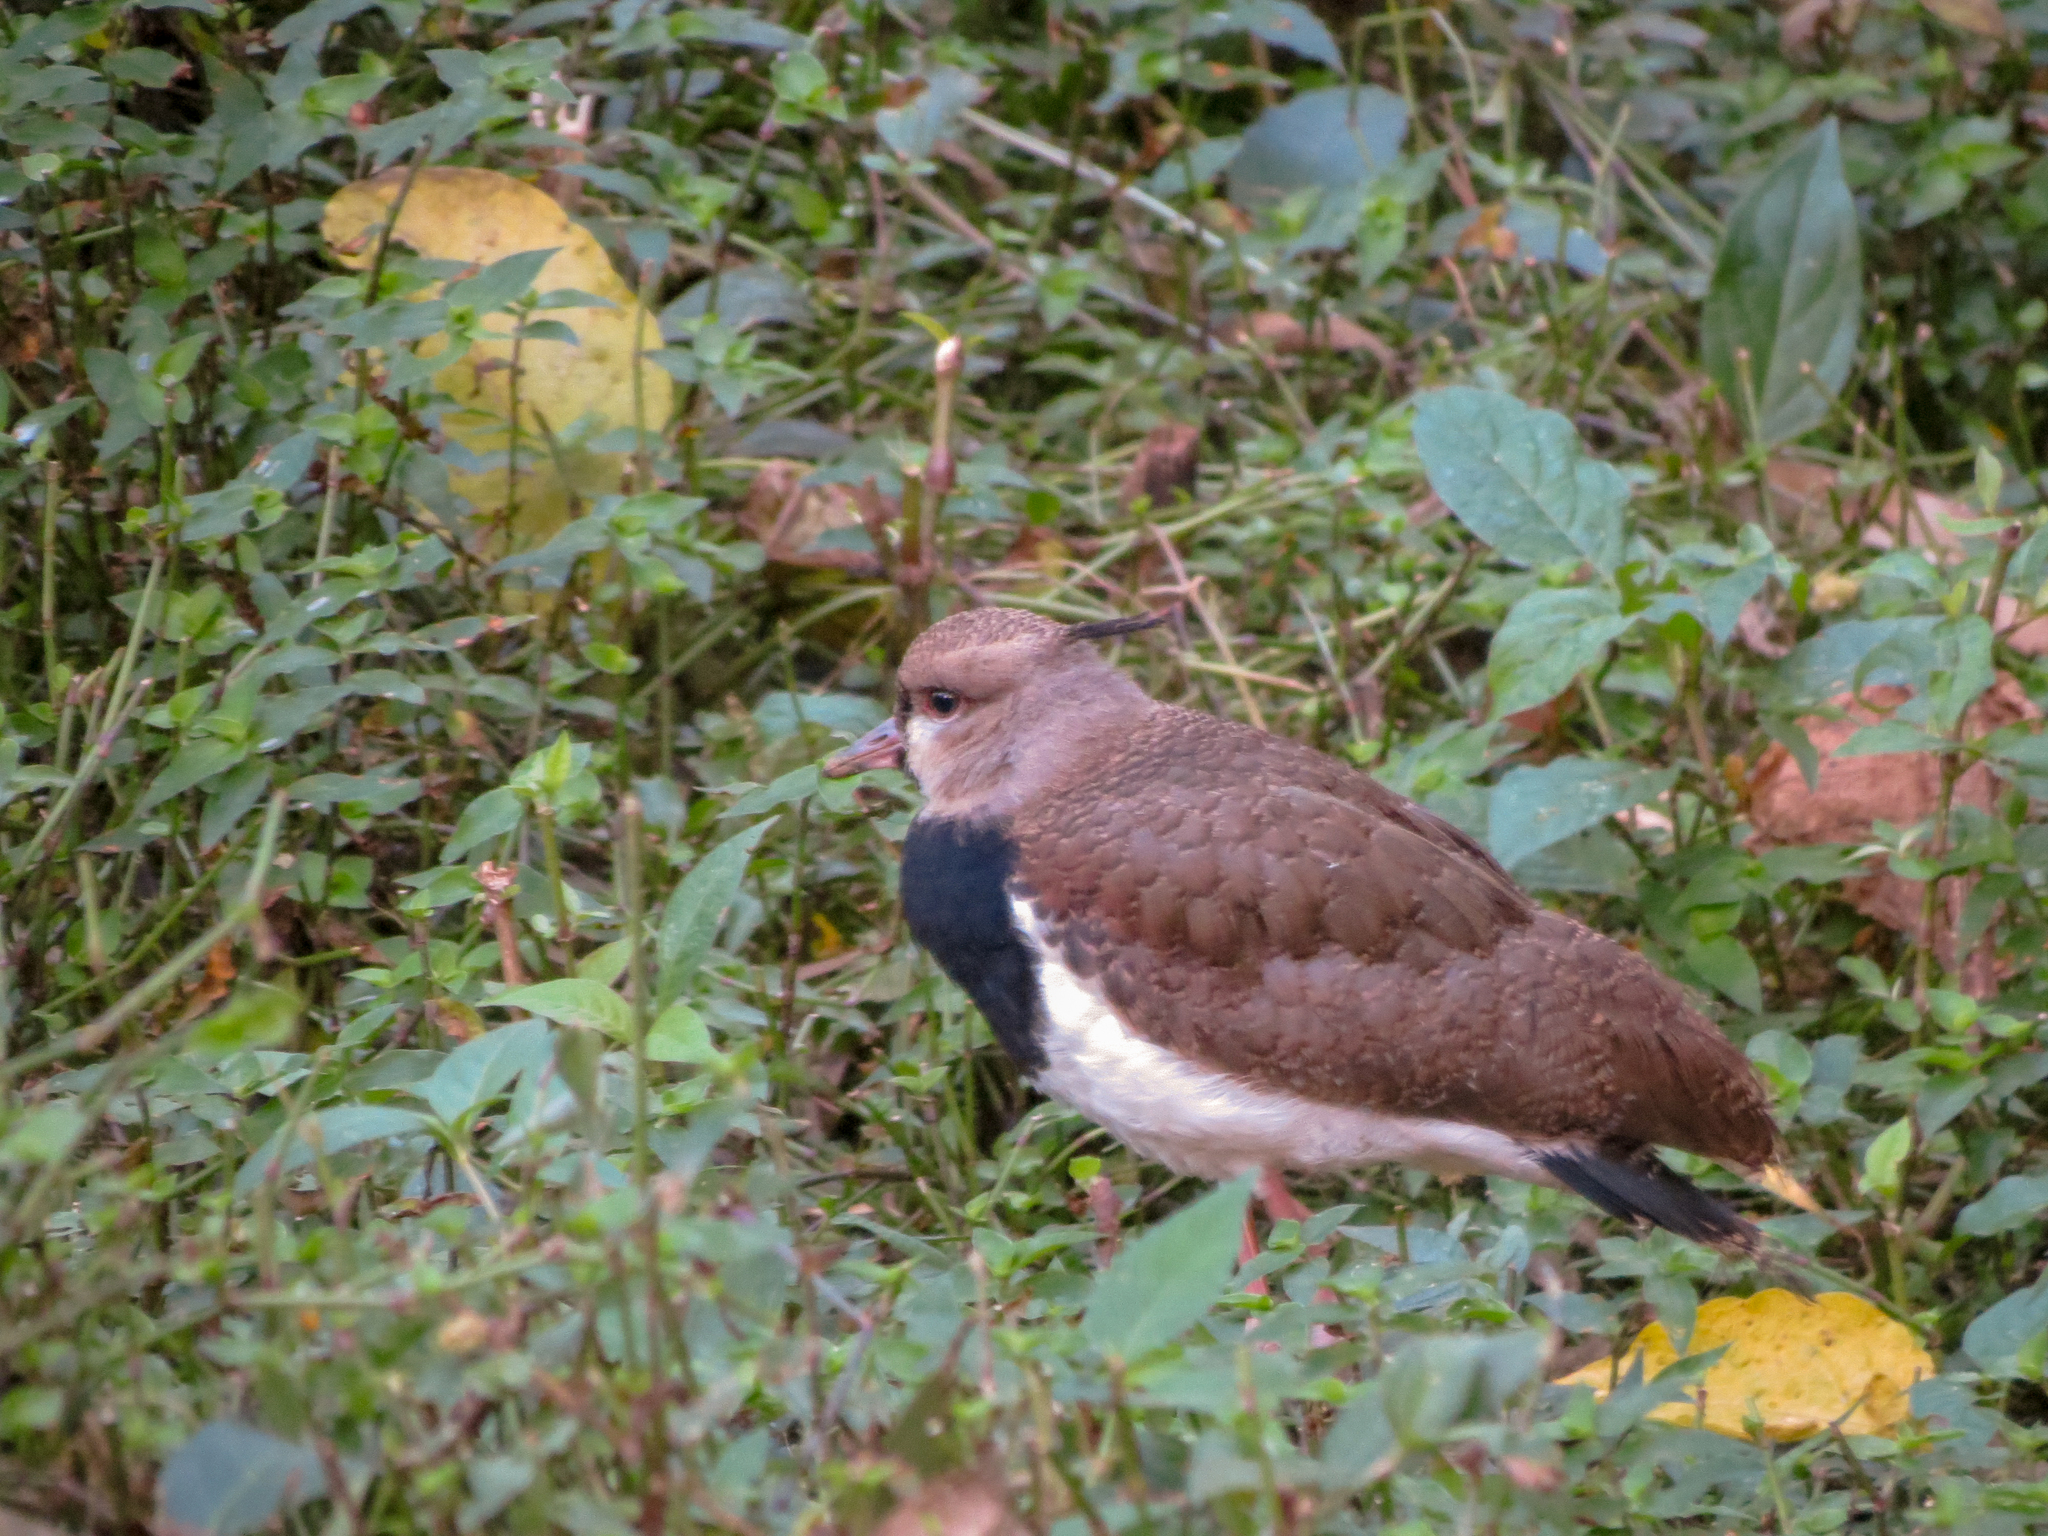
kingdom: Animalia
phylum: Chordata
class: Aves
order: Charadriiformes
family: Charadriidae
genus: Vanellus
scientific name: Vanellus chilensis
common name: Southern lapwing
